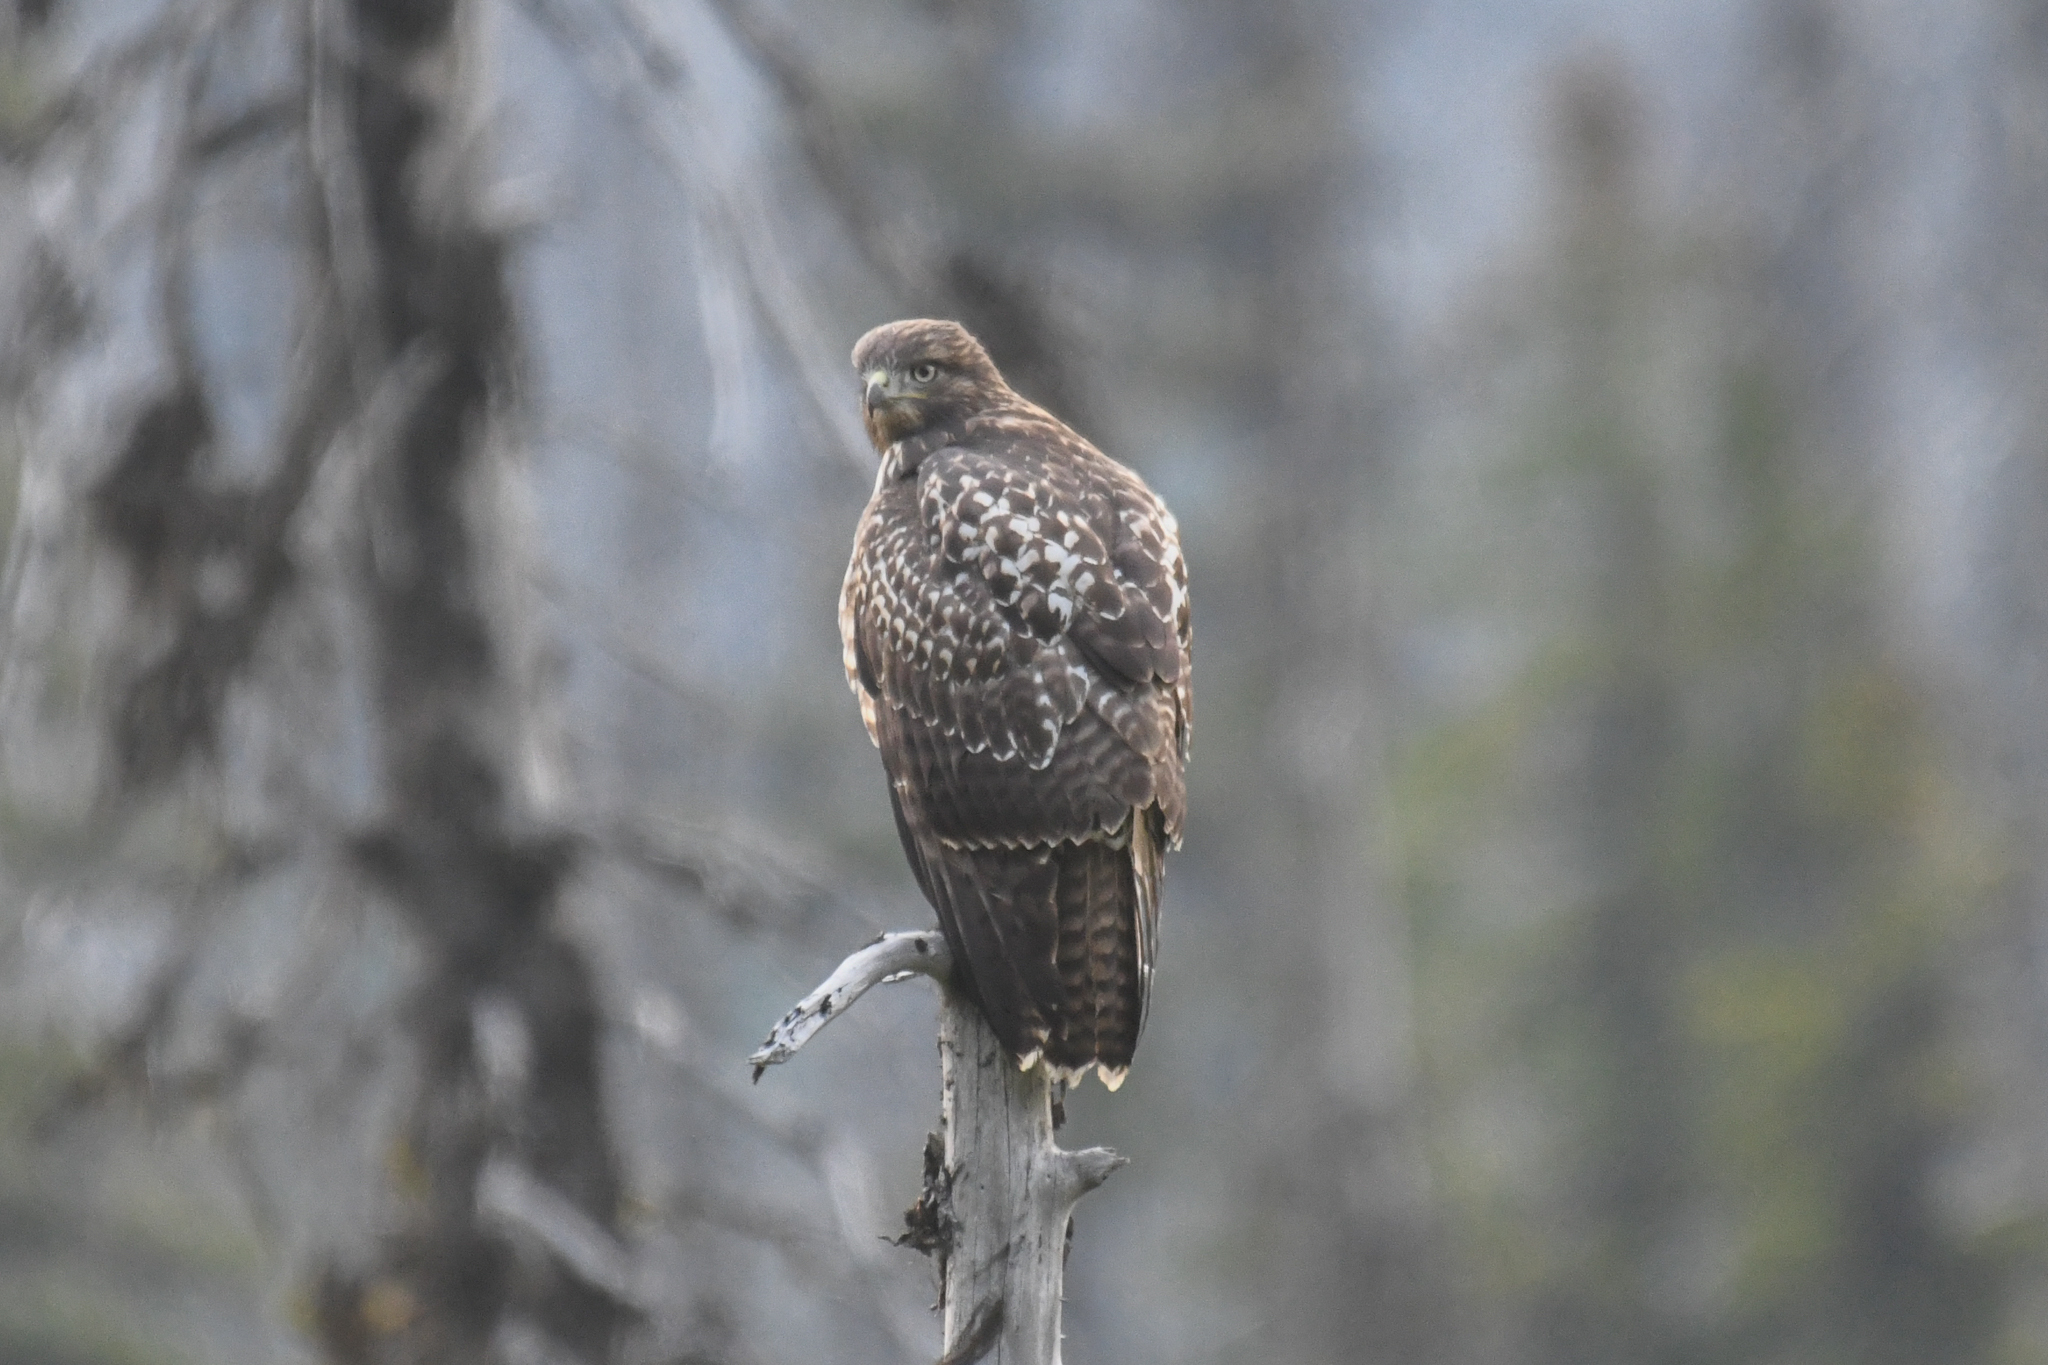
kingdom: Animalia
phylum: Chordata
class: Aves
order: Accipitriformes
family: Accipitridae
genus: Buteo
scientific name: Buteo jamaicensis
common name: Red-tailed hawk
